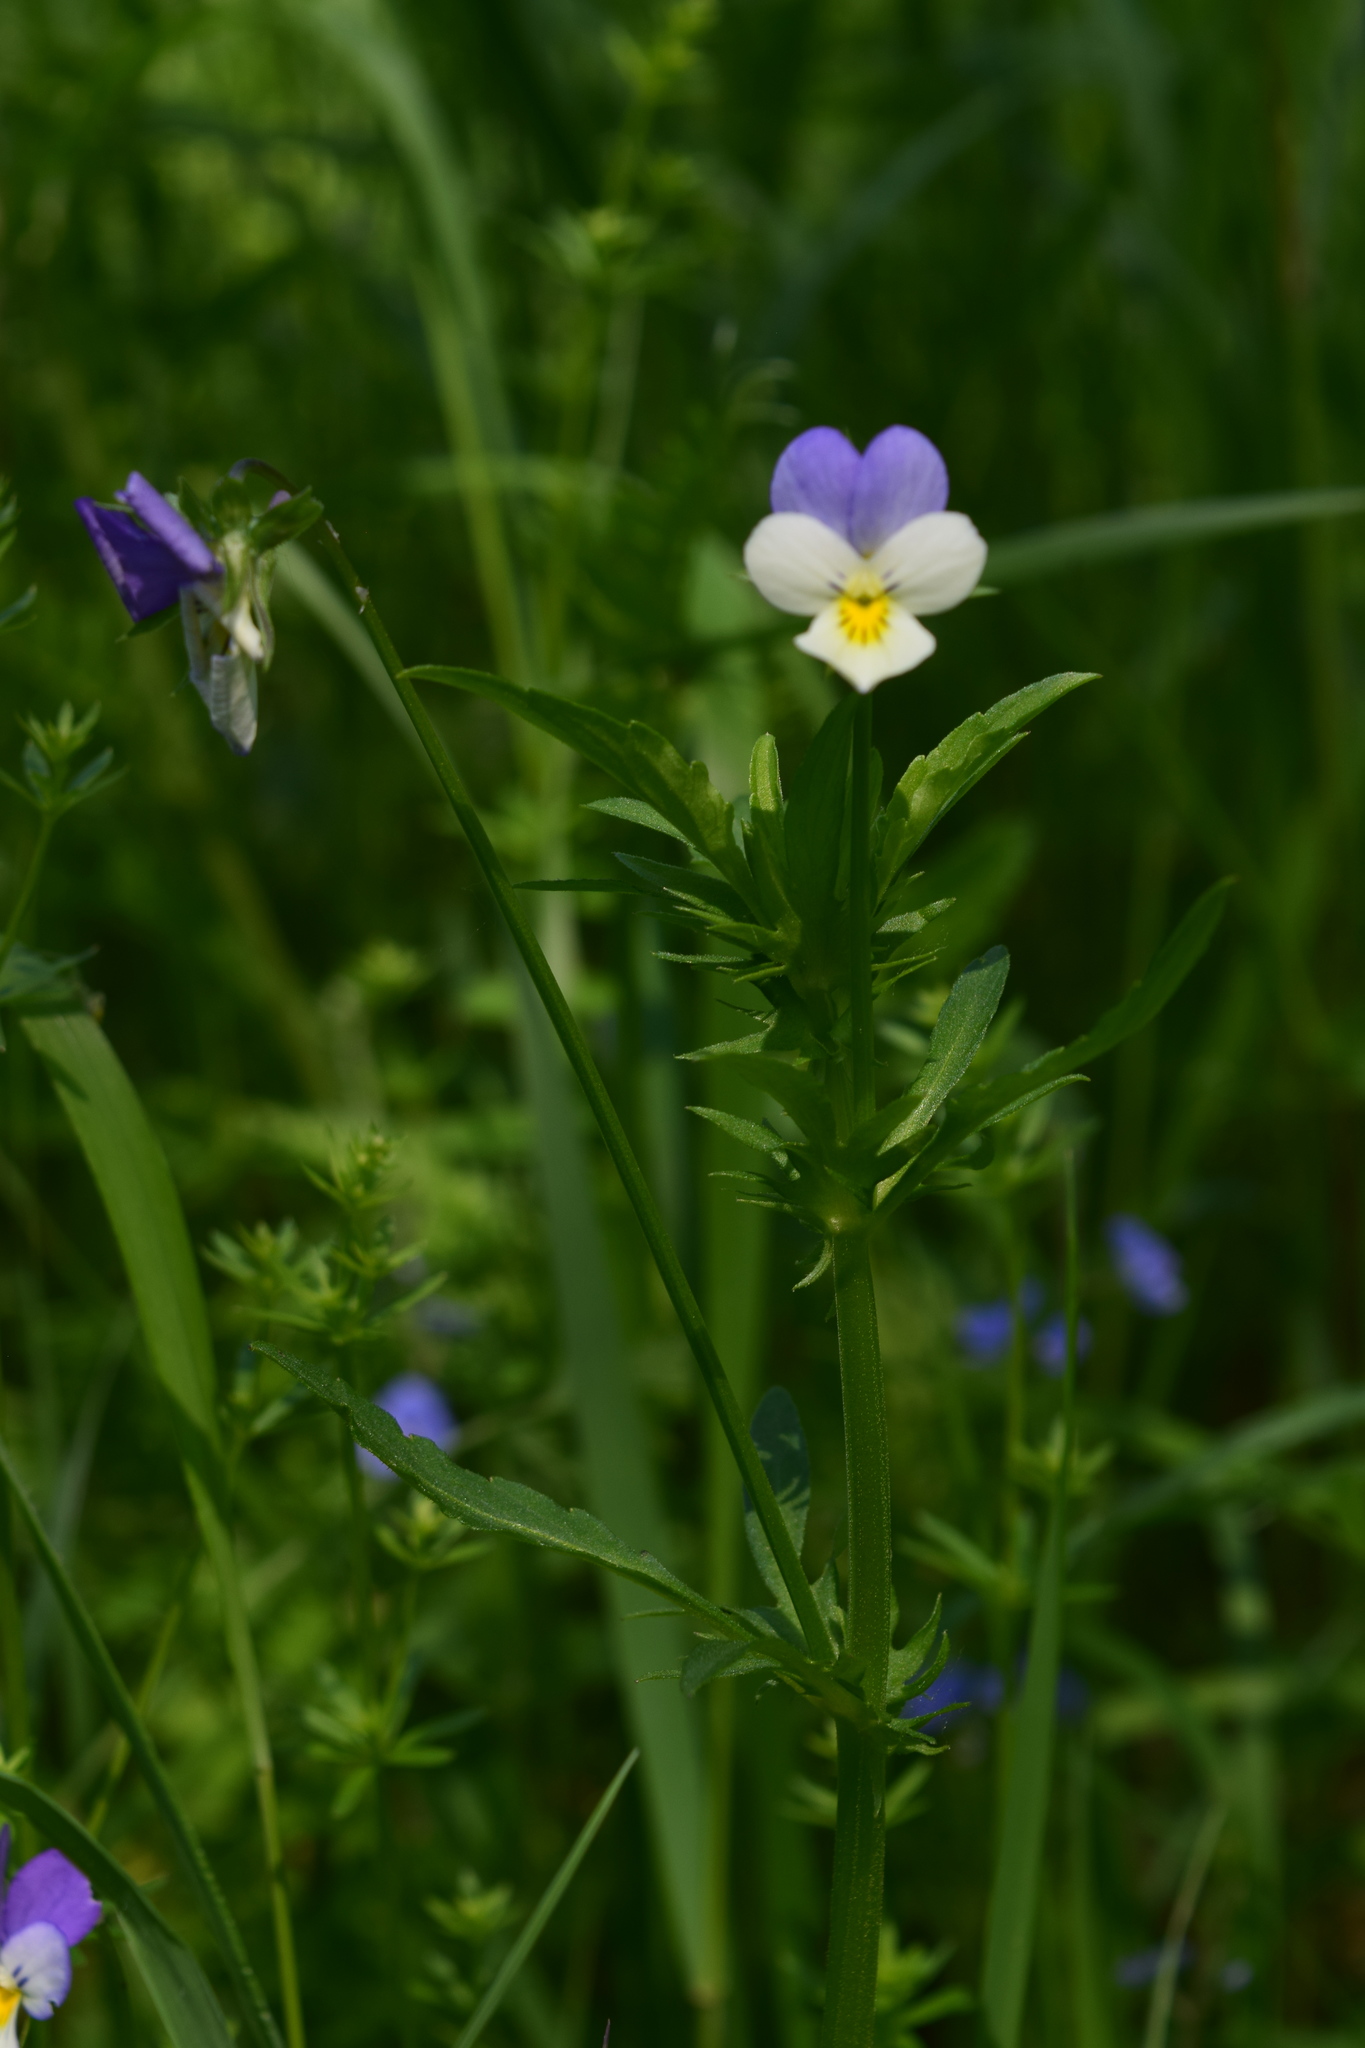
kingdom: Plantae
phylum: Tracheophyta
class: Magnoliopsida
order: Malpighiales
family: Violaceae
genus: Viola
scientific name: Viola tricolor
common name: Pansy
